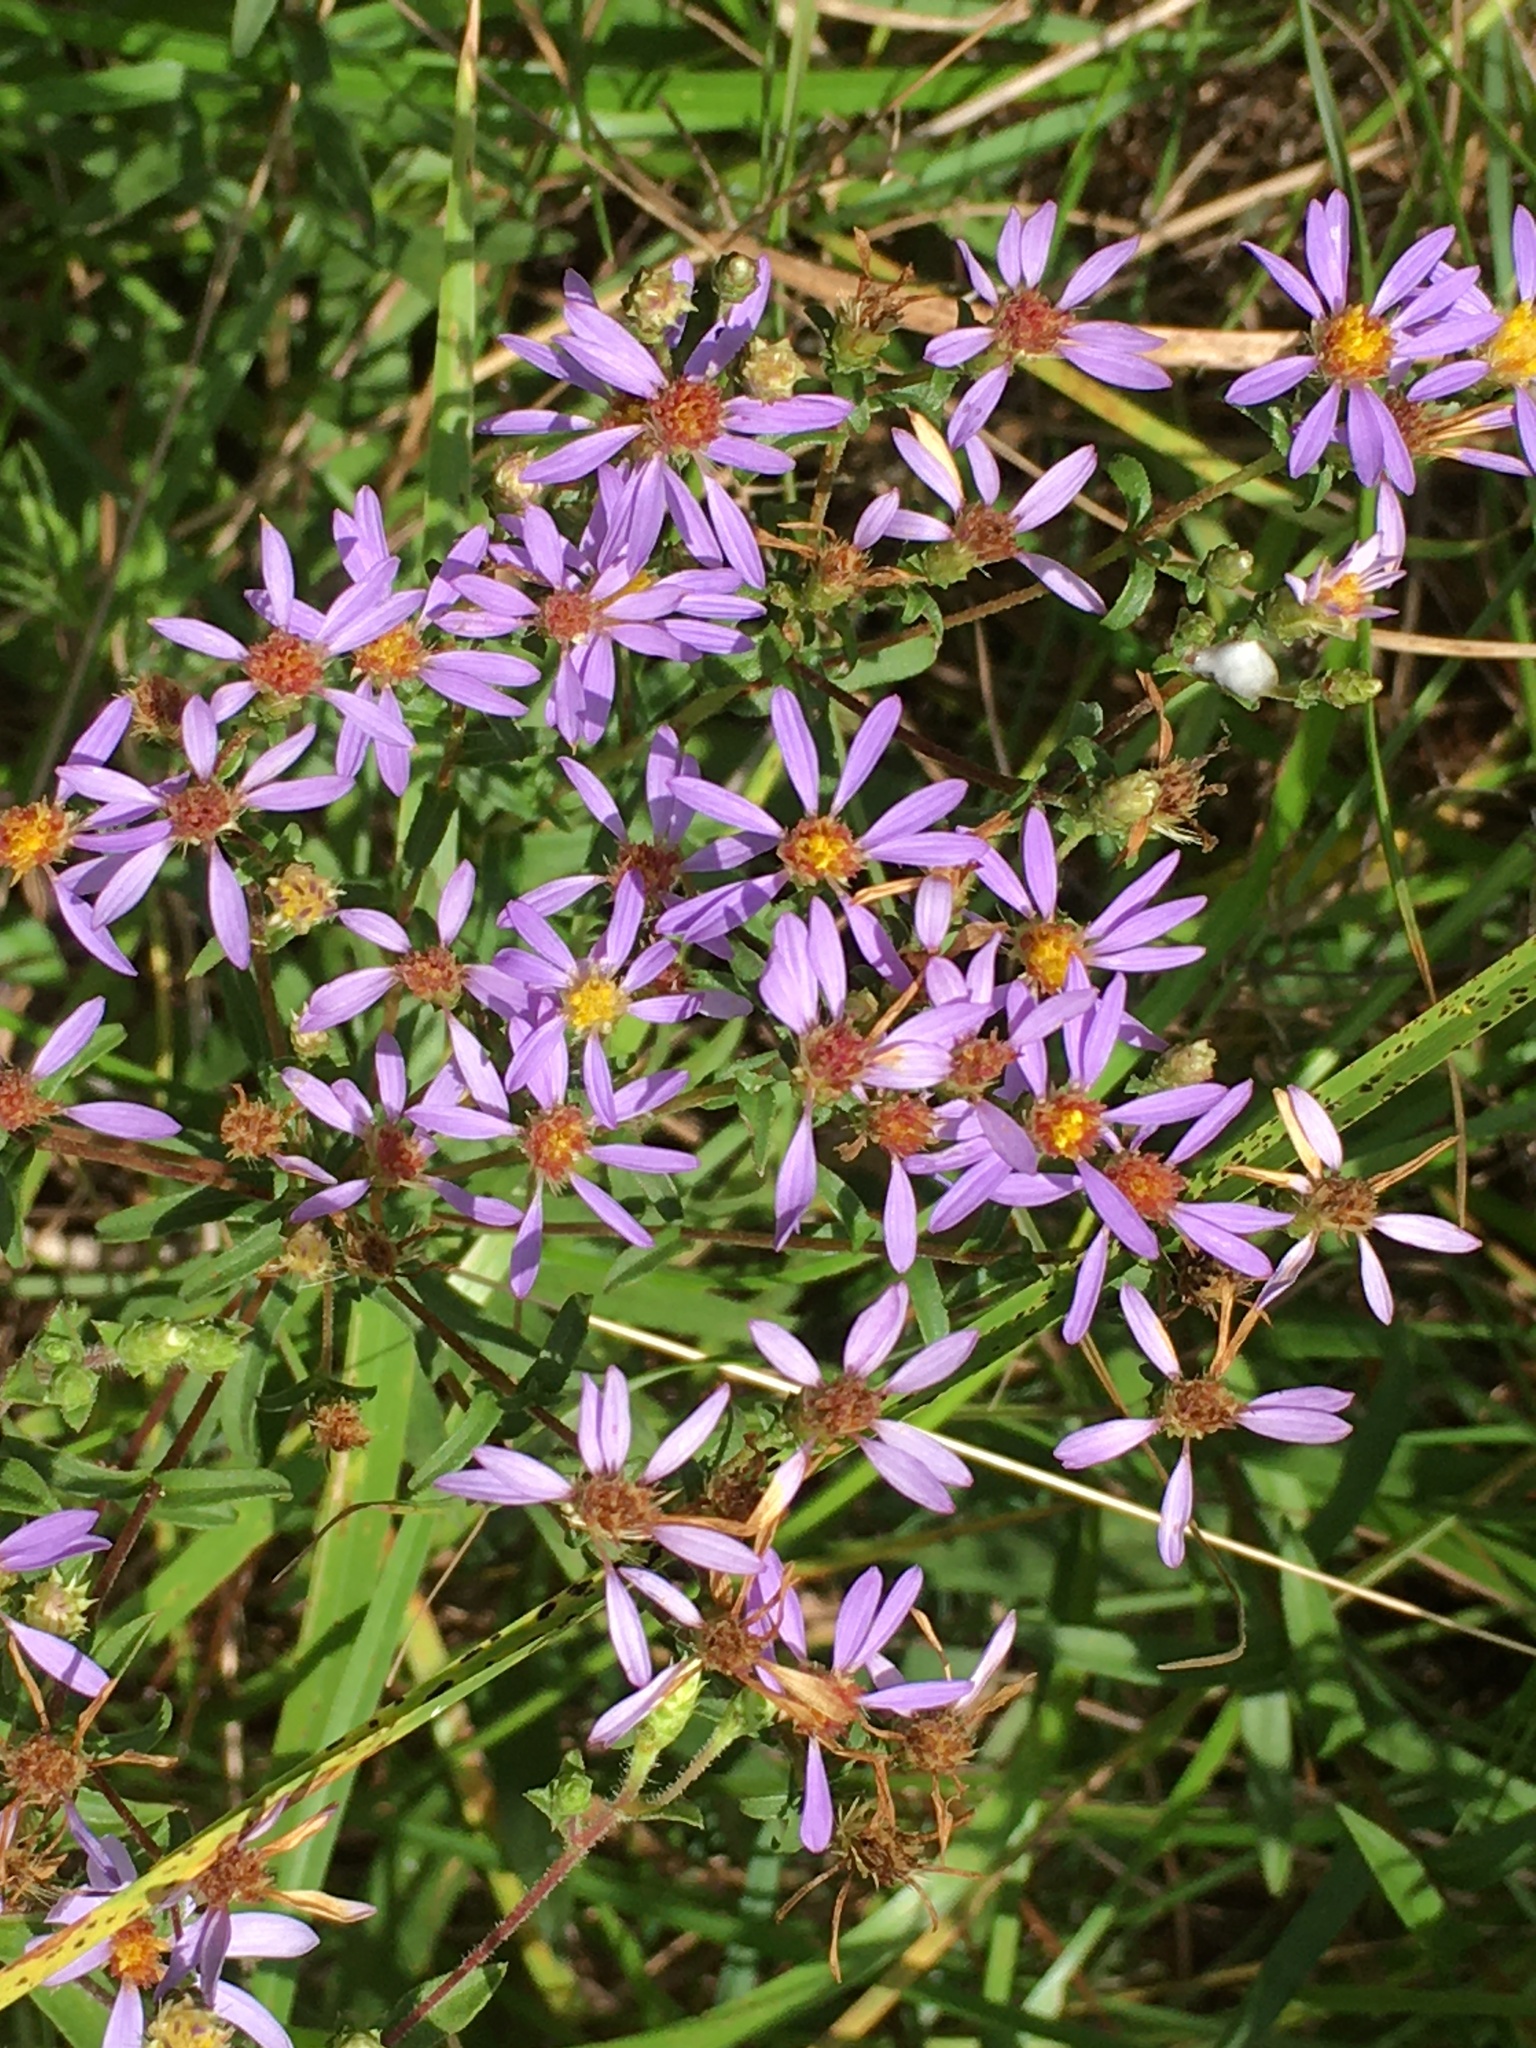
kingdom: Plantae
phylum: Tracheophyta
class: Magnoliopsida
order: Asterales
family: Asteraceae
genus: Eurybia
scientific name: Eurybia compacta
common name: Slender aster
